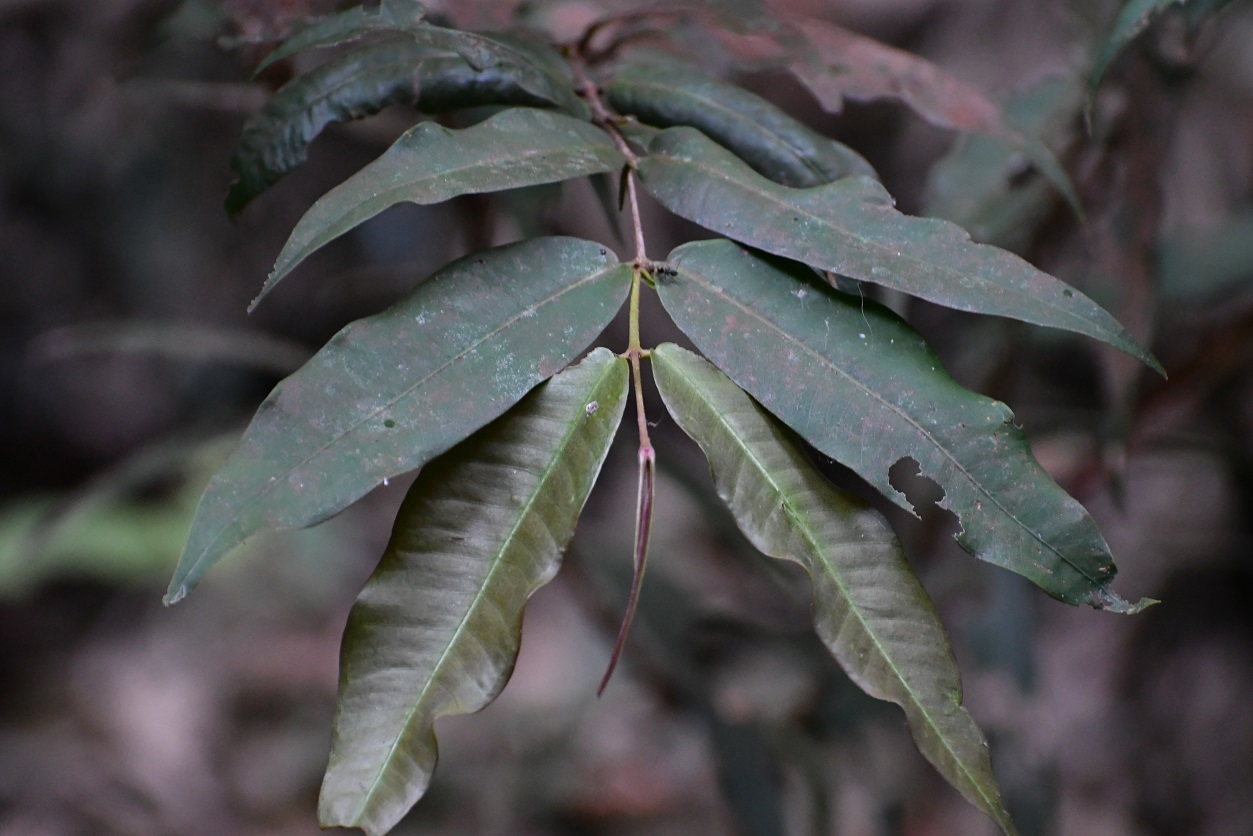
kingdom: Plantae
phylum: Tracheophyta
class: Magnoliopsida
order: Myrtales
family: Myrtaceae
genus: Myrcia
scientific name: Myrcia chiapensis
